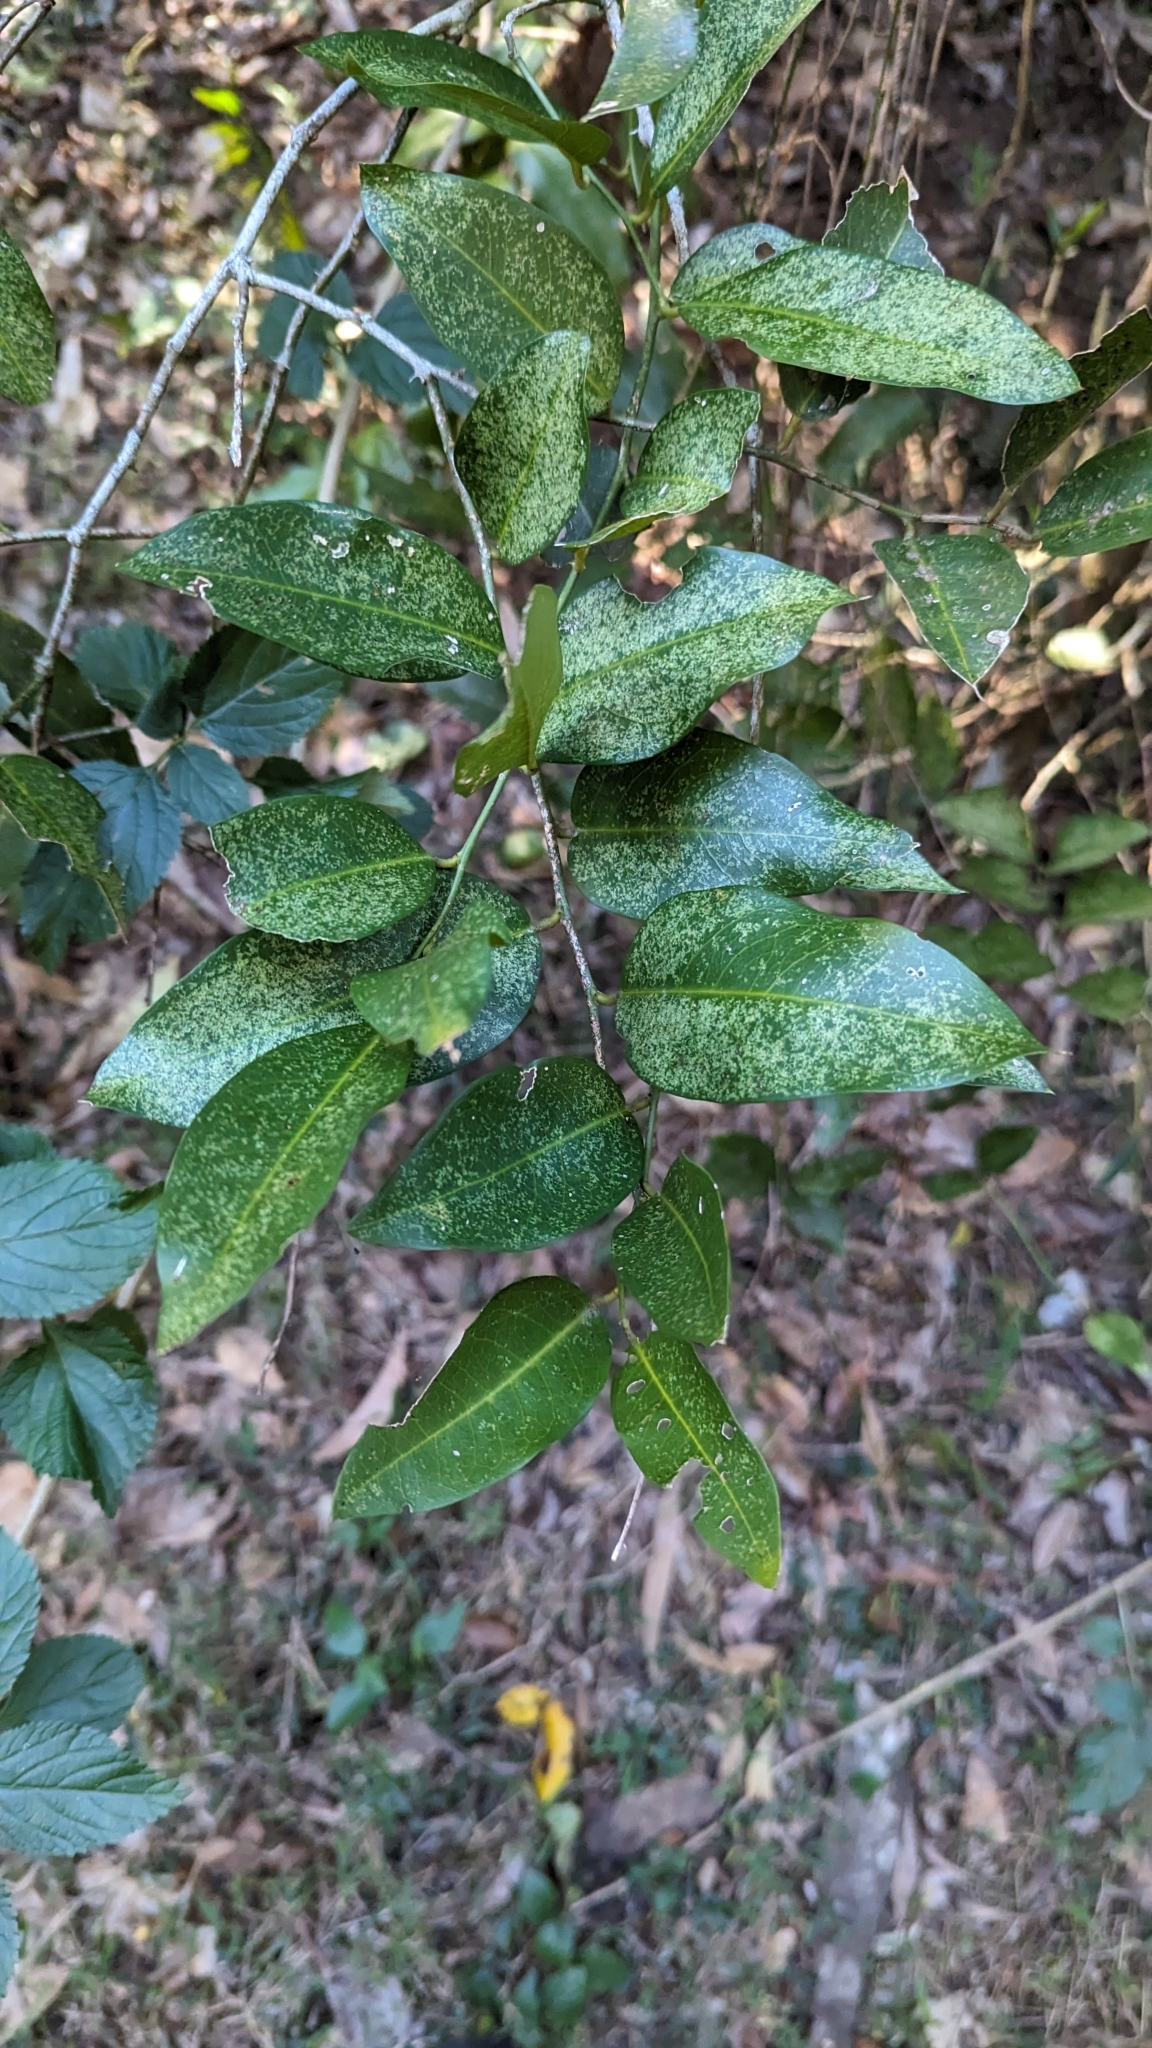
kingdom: Plantae
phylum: Tracheophyta
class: Magnoliopsida
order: Brassicales
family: Capparaceae
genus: Capparis
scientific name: Capparis arborea
